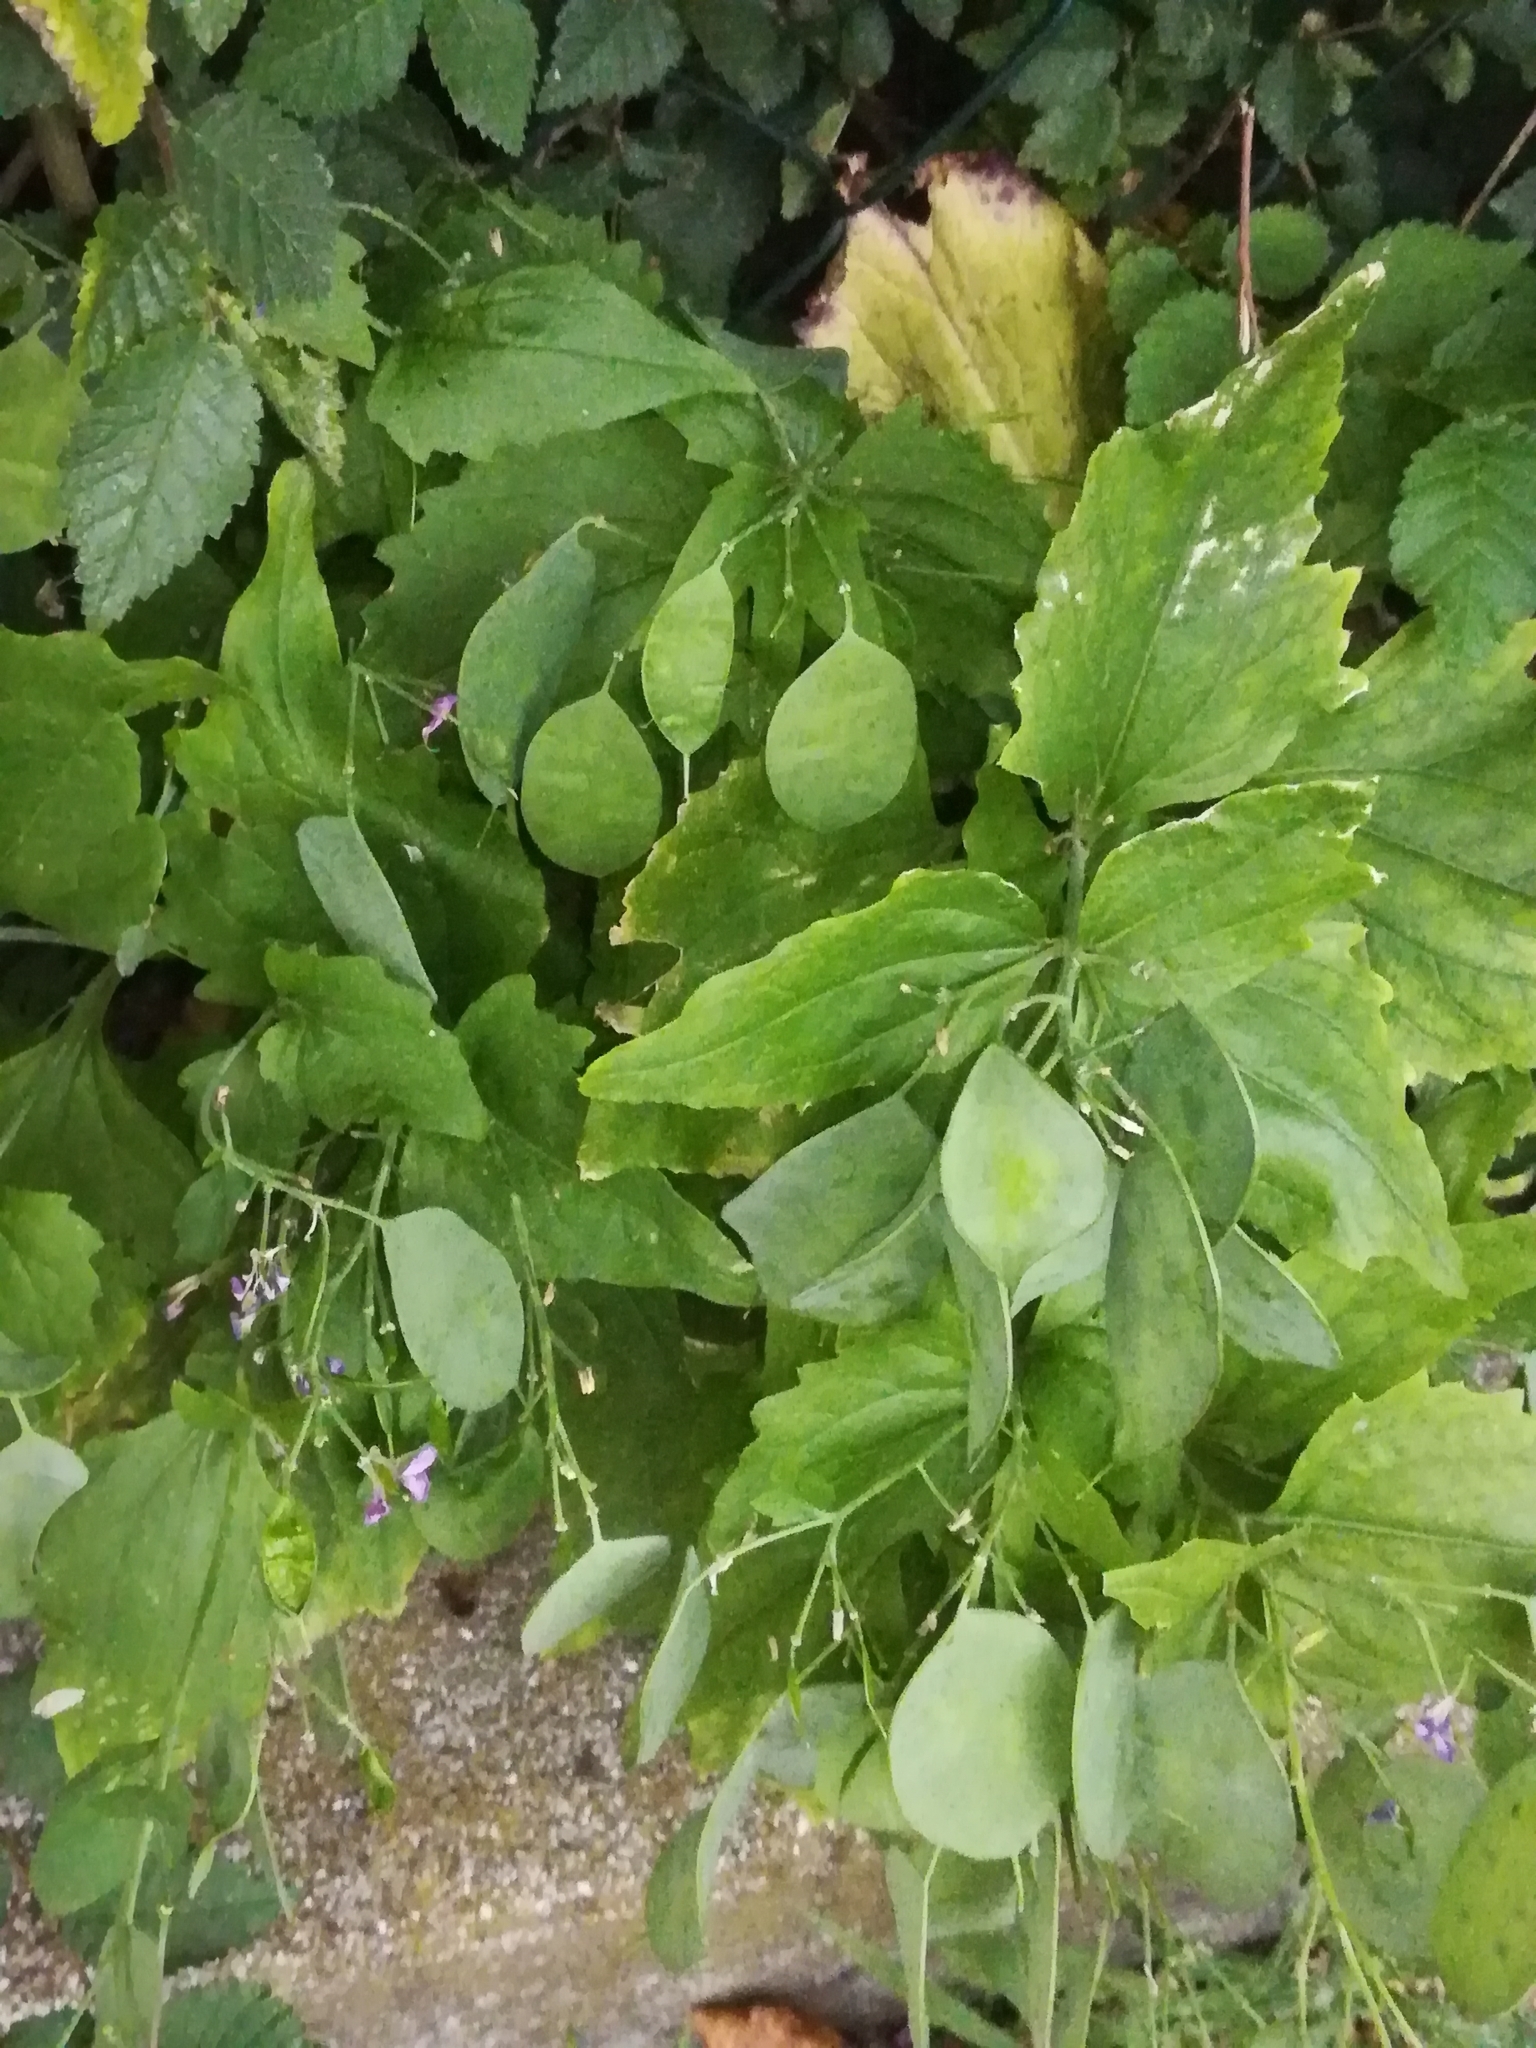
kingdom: Plantae
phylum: Tracheophyta
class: Magnoliopsida
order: Brassicales
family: Brassicaceae
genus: Lunaria
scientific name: Lunaria annua
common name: Honesty
